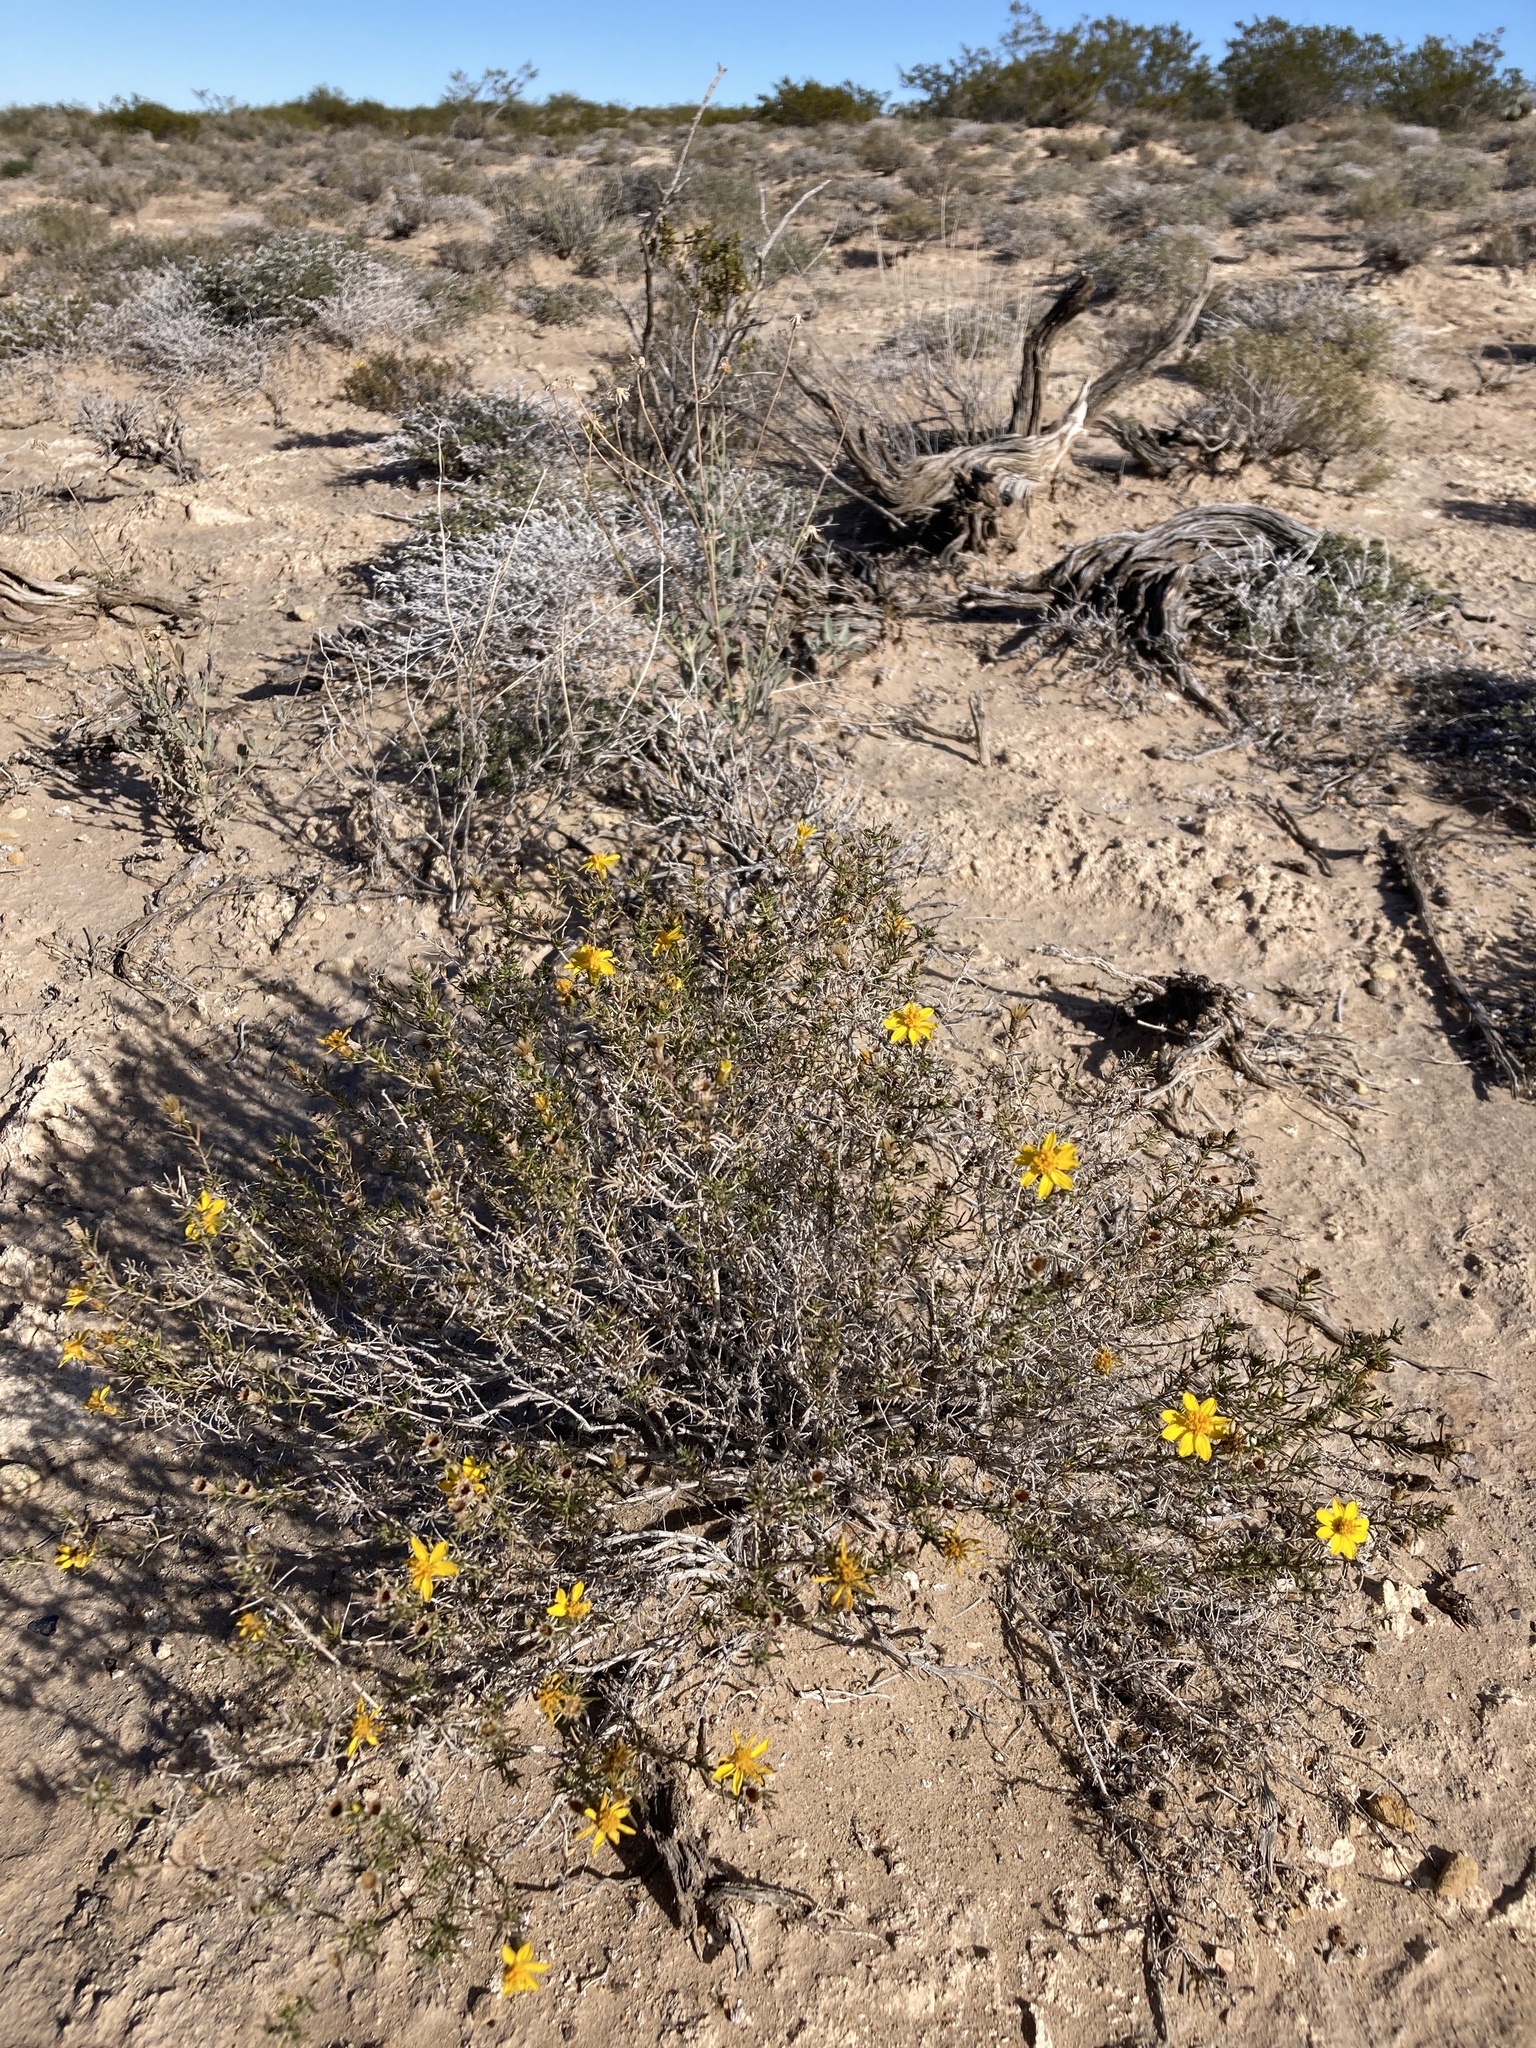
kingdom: Plantae
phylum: Tracheophyta
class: Magnoliopsida
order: Asterales
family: Asteraceae
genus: Thymophylla
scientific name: Thymophylla acerosa
